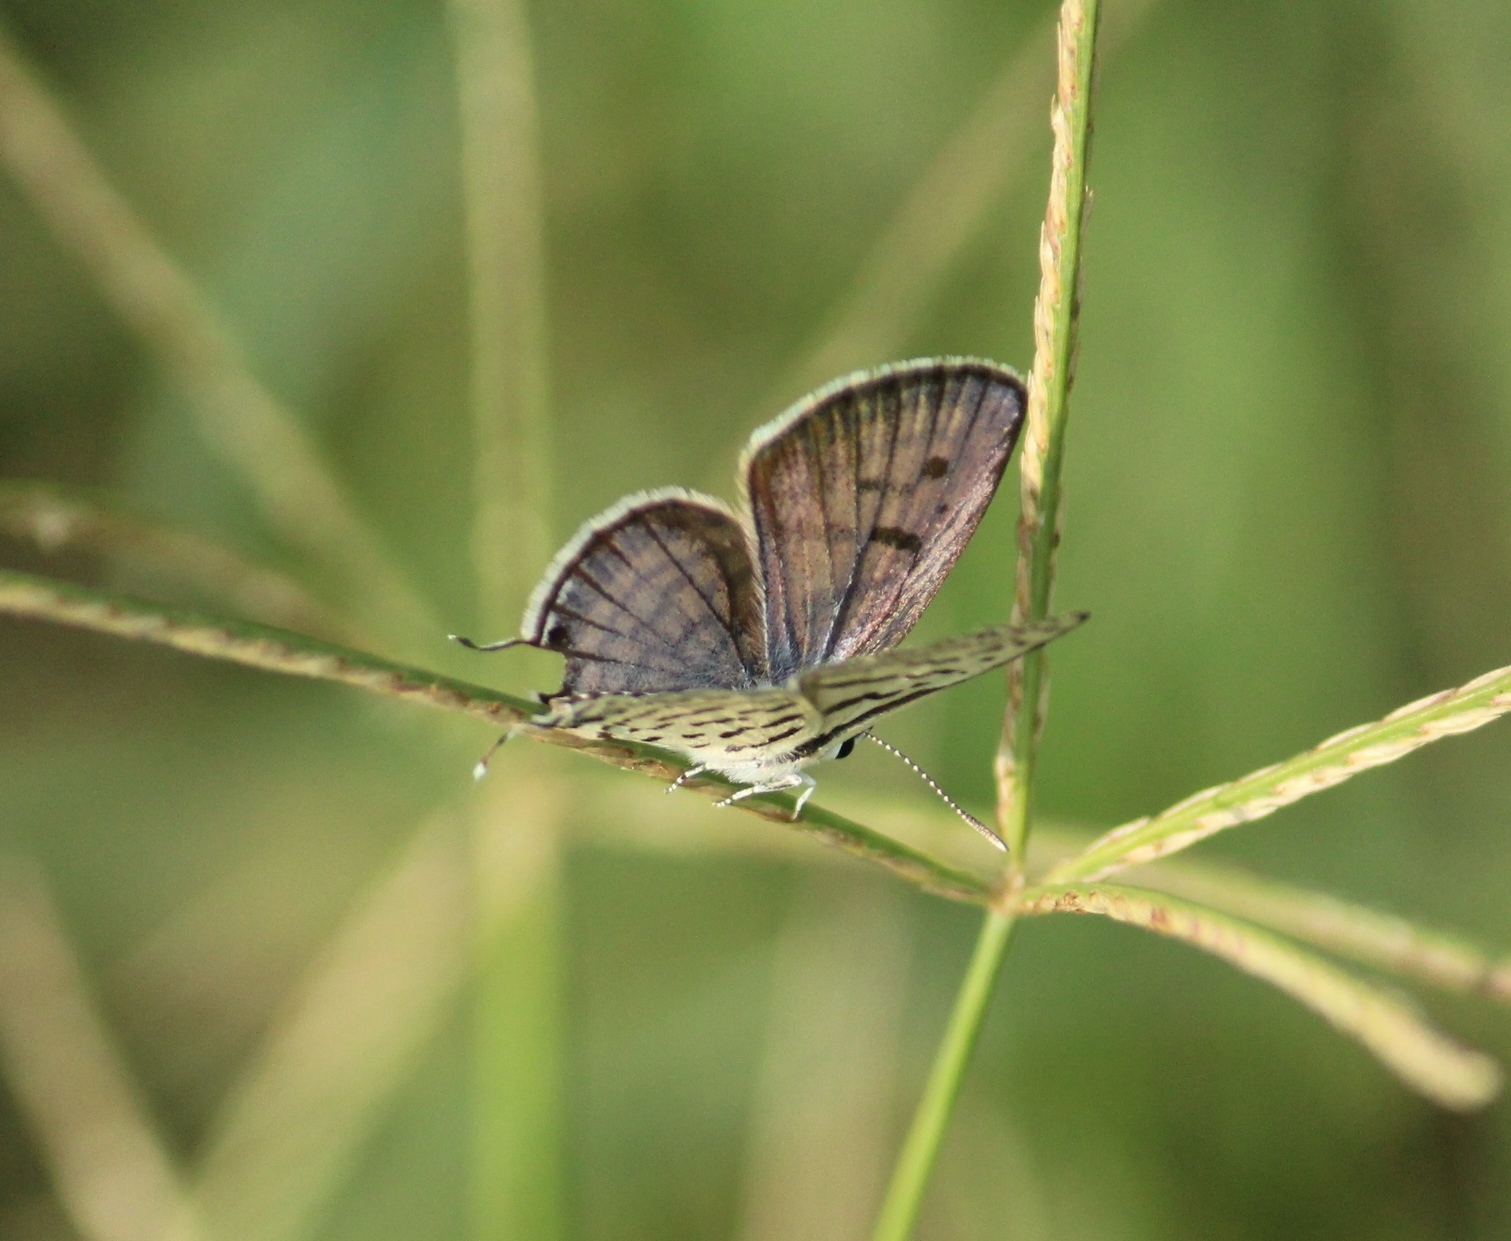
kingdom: Animalia
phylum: Arthropoda
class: Insecta
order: Lepidoptera
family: Lycaenidae
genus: Tarucus
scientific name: Tarucus balkanica
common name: Little tiger blue
